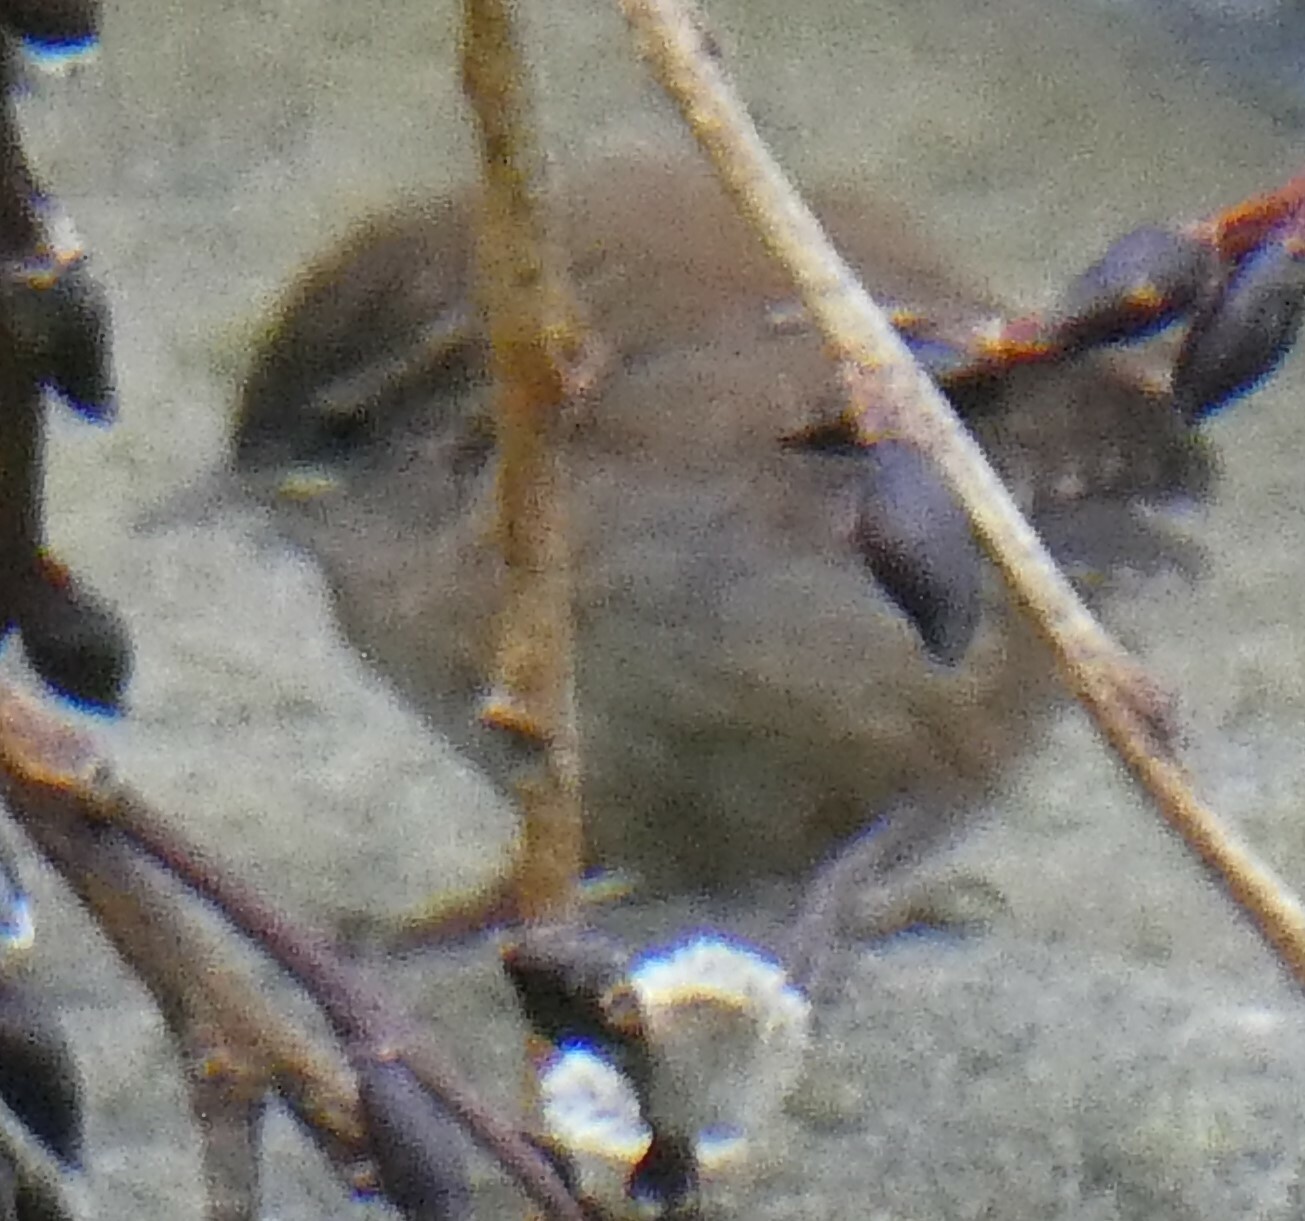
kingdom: Animalia
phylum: Chordata
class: Aves
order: Passeriformes
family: Troglodytidae
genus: Troglodytes
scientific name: Troglodytes troglodytes
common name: Eurasian wren
